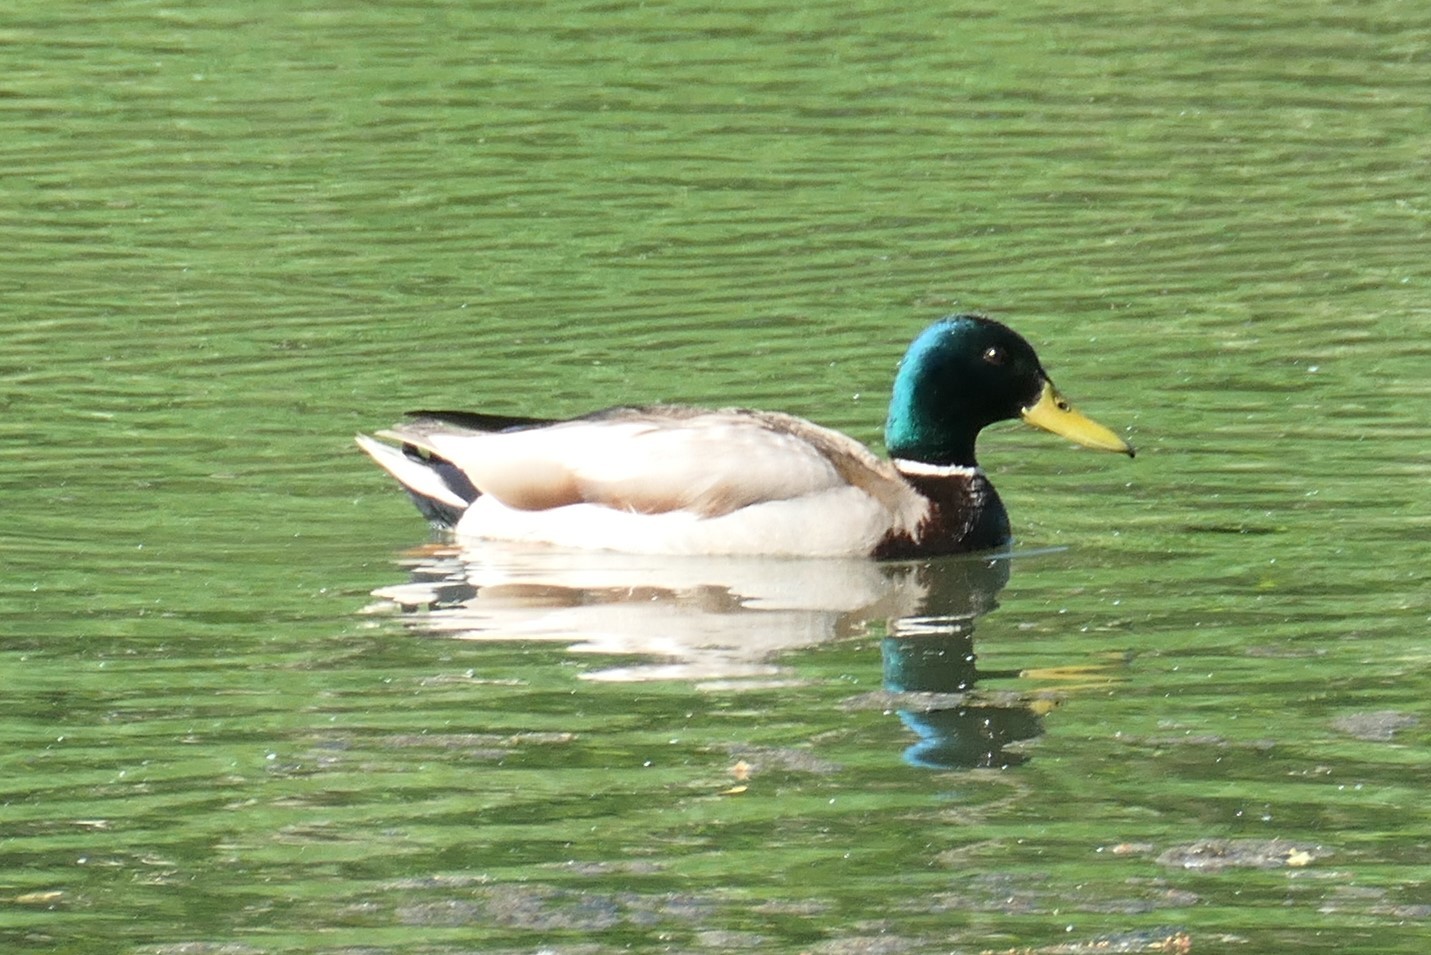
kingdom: Animalia
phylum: Chordata
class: Aves
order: Anseriformes
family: Anatidae
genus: Anas
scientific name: Anas platyrhynchos
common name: Mallard
